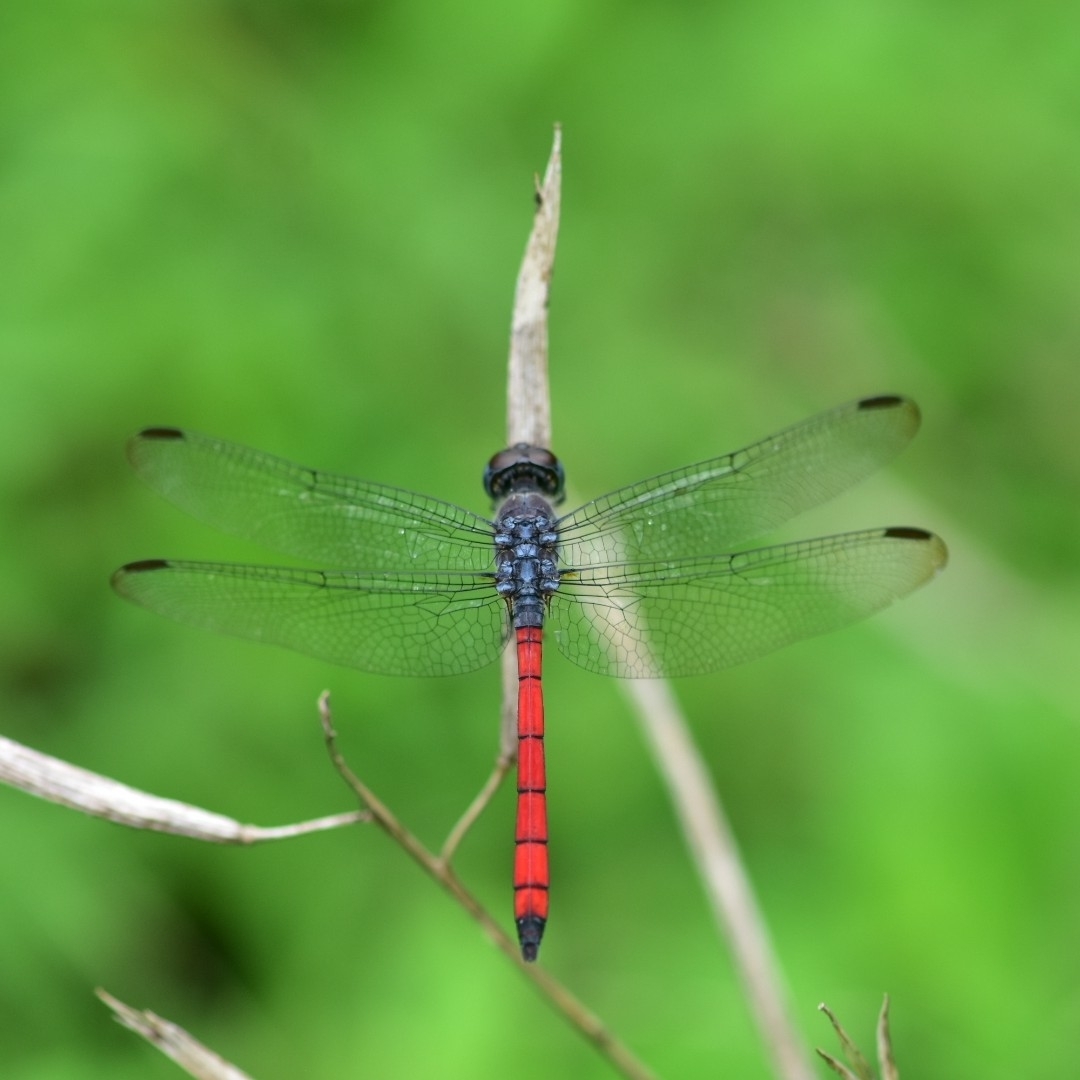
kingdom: Animalia
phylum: Arthropoda
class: Insecta
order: Odonata
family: Libellulidae
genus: Lathrecista
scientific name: Lathrecista asiatica
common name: Scarlet grenadier
